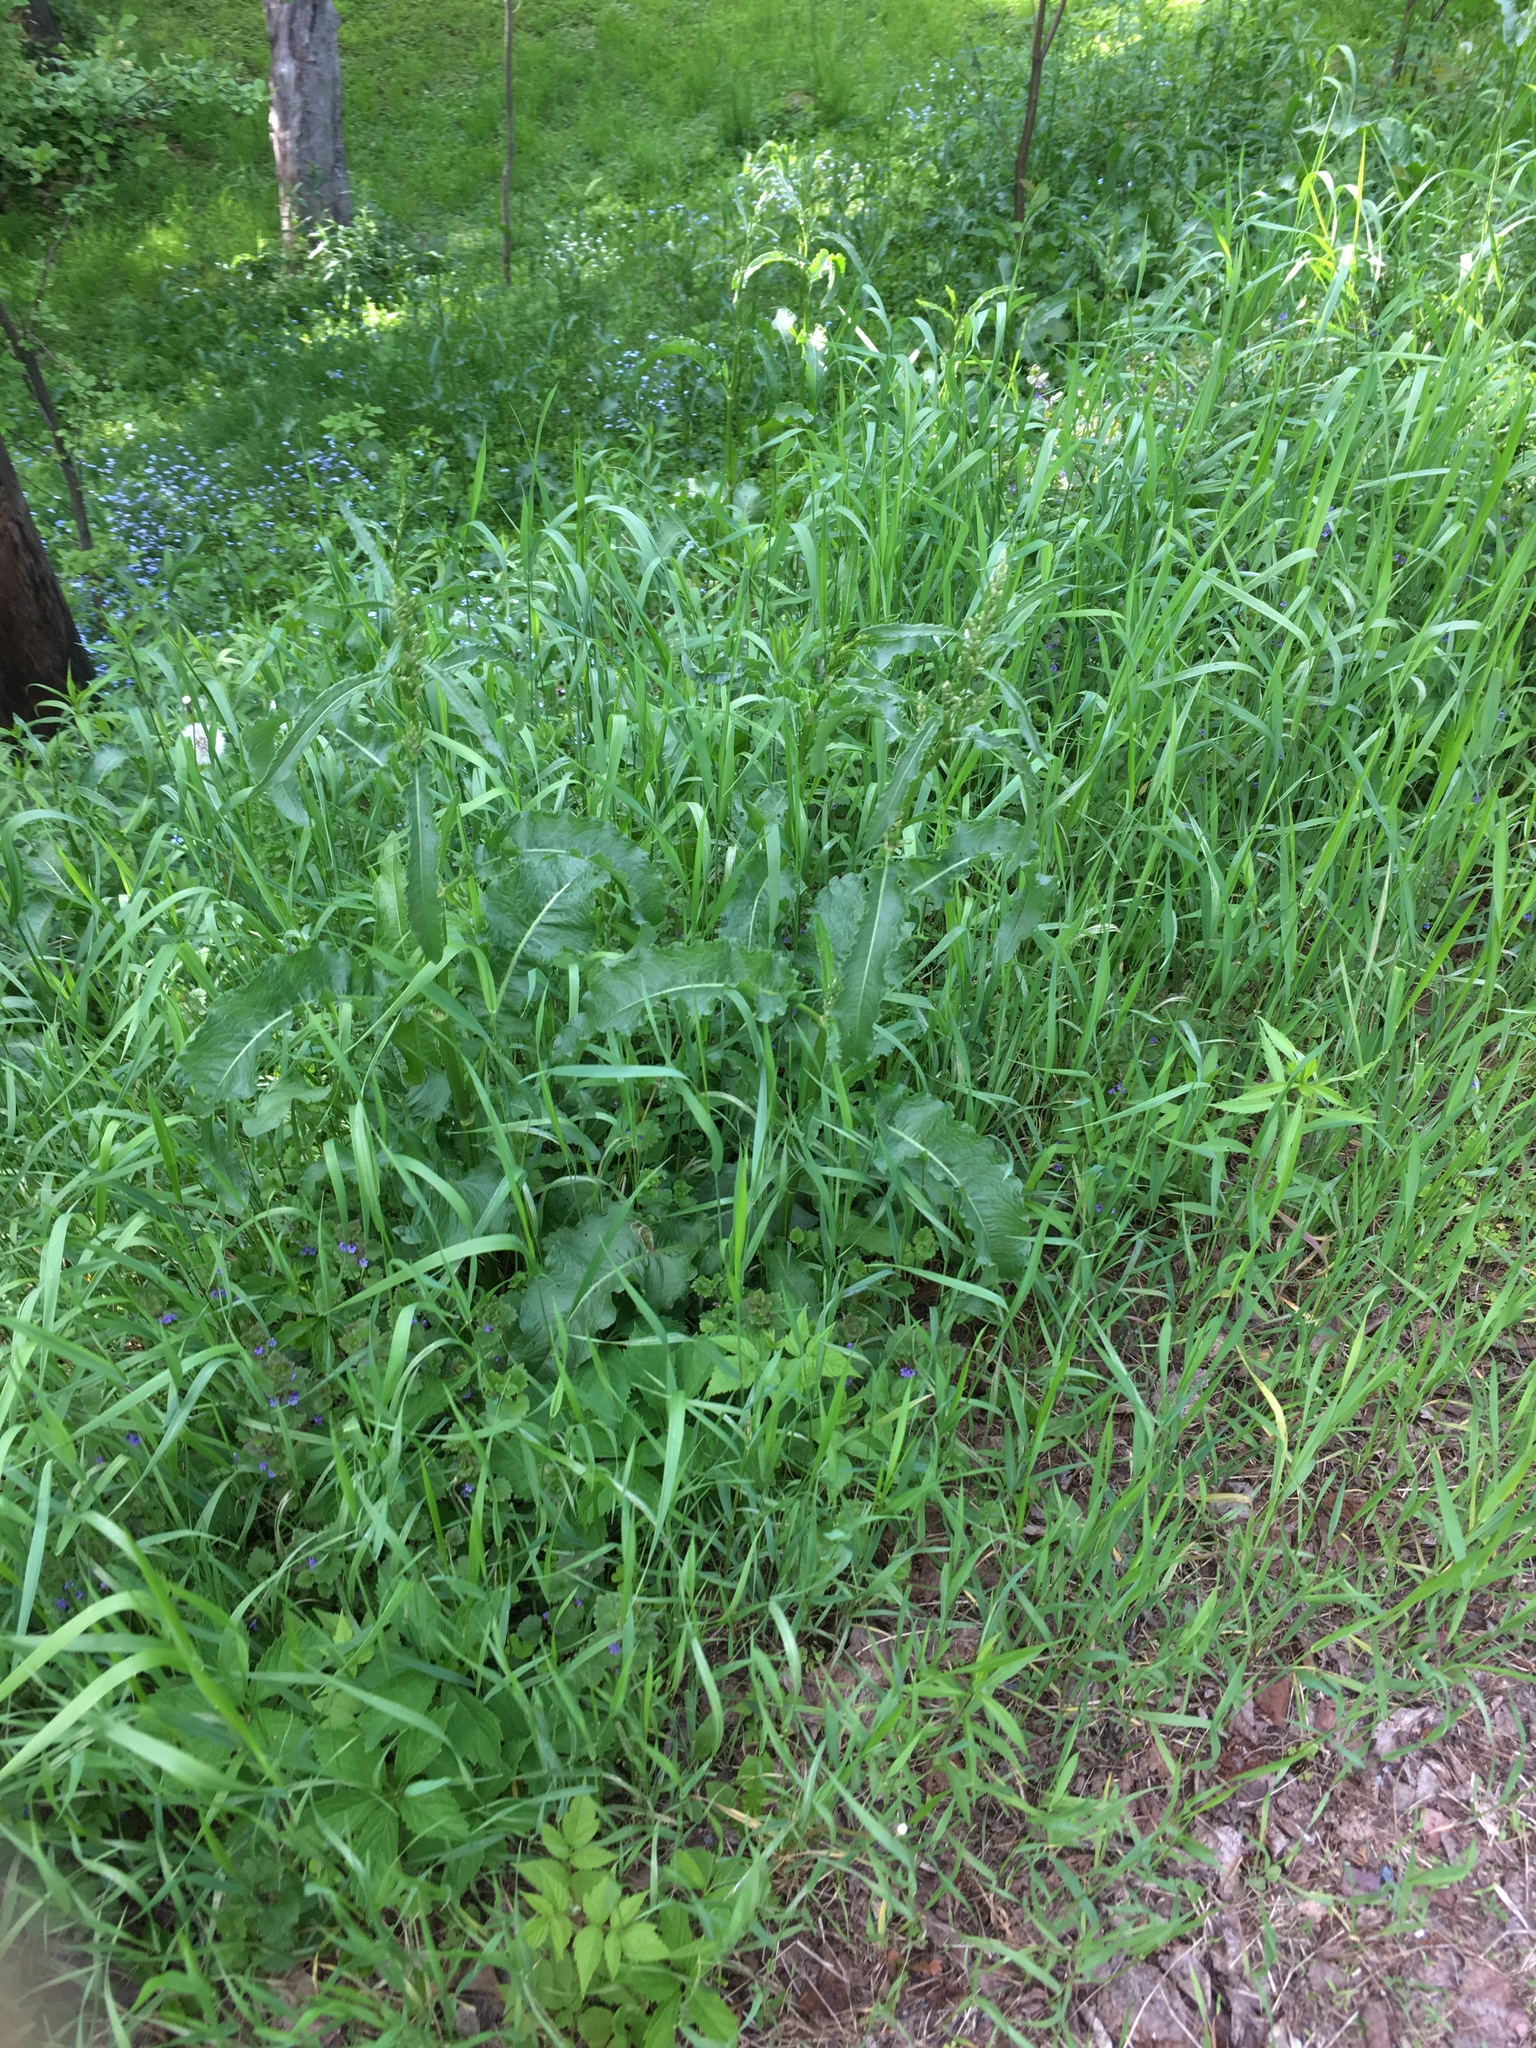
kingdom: Plantae
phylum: Tracheophyta
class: Magnoliopsida
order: Caryophyllales
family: Polygonaceae
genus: Rumex
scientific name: Rumex crispus
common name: Curled dock
